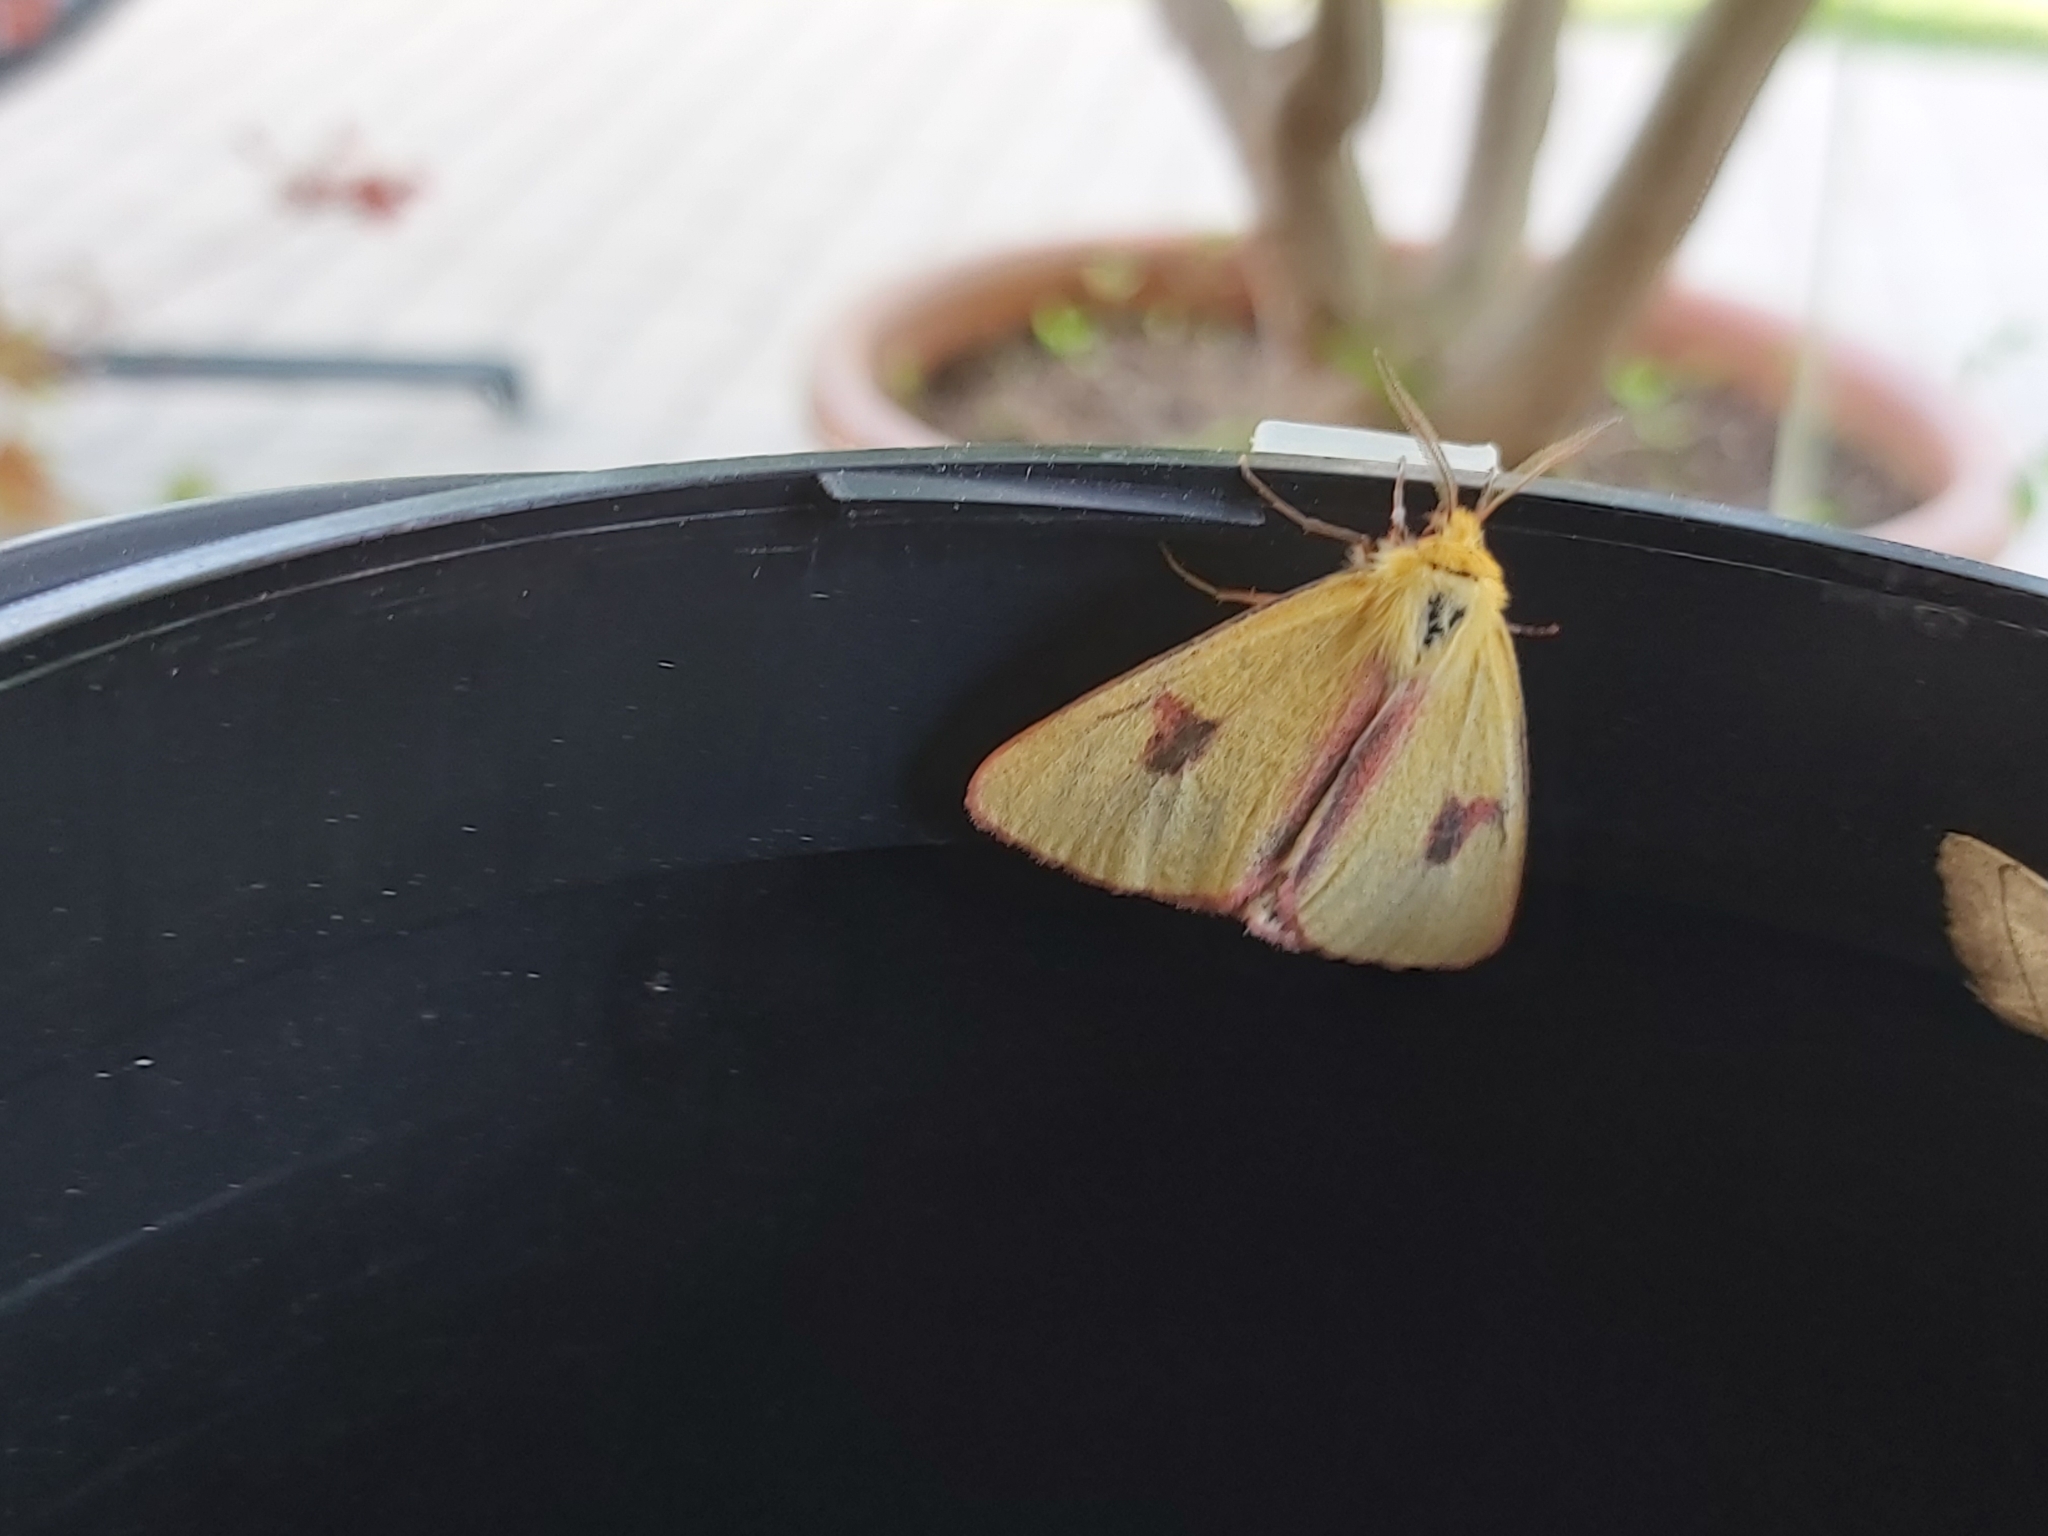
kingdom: Animalia
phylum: Arthropoda
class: Insecta
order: Lepidoptera
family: Erebidae
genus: Diacrisia
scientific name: Diacrisia sannio
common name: Clouded buff
